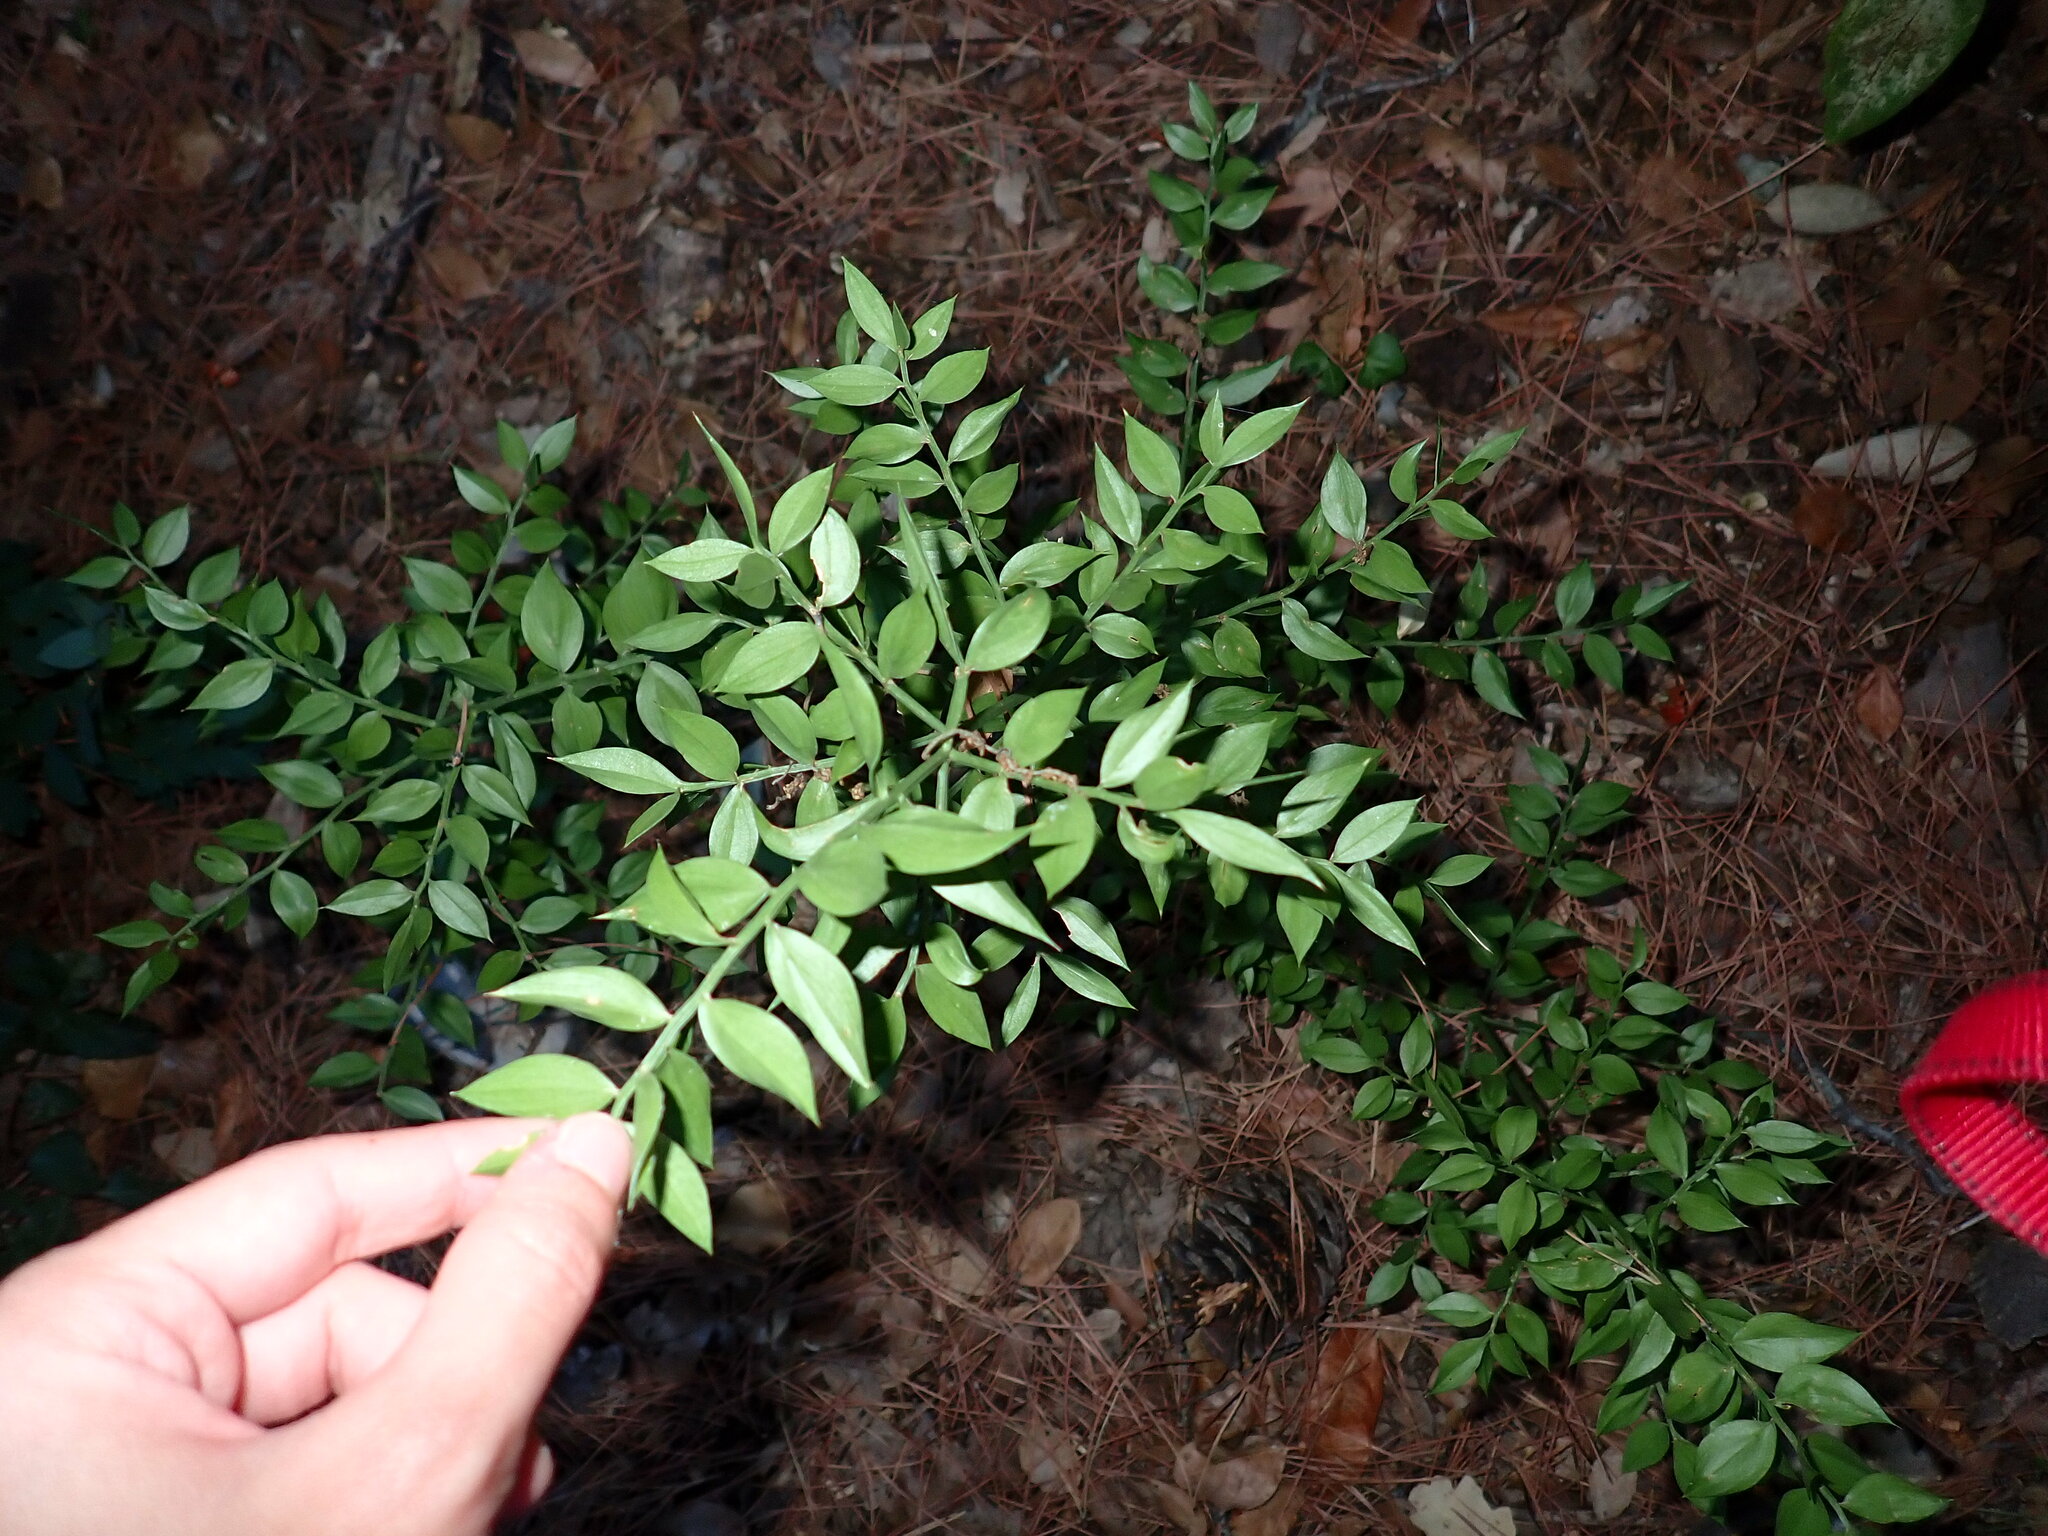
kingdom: Plantae
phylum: Tracheophyta
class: Liliopsida
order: Asparagales
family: Asparagaceae
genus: Ruscus
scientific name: Ruscus aculeatus
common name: Butcher's-broom
